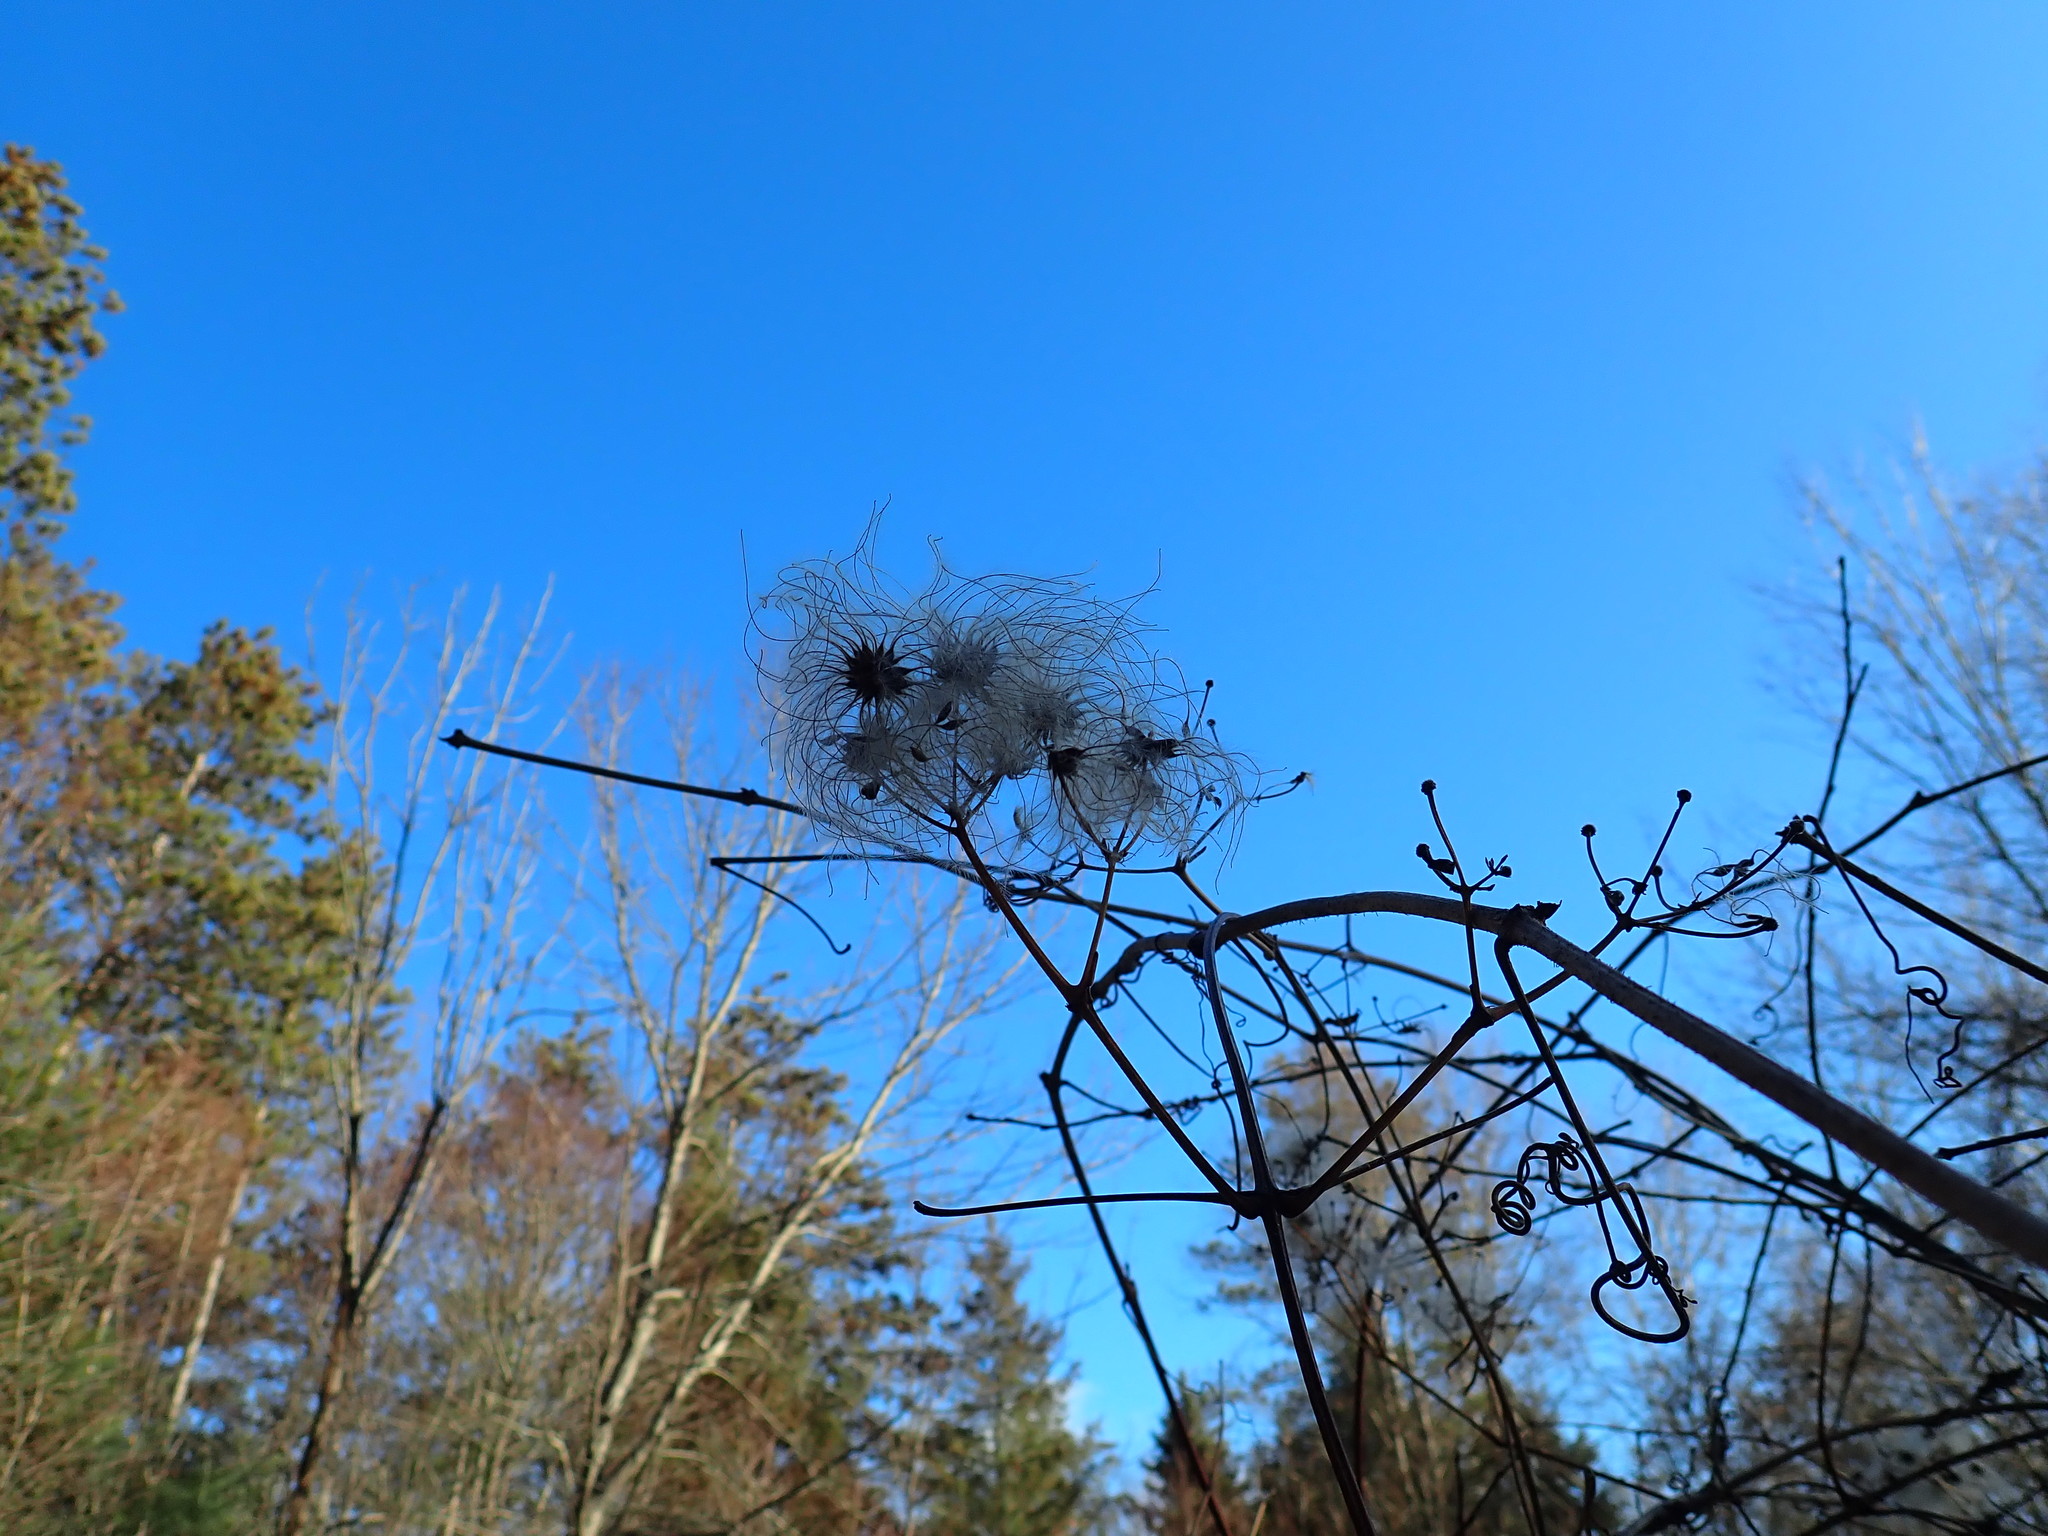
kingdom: Plantae
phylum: Tracheophyta
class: Magnoliopsida
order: Ranunculales
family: Ranunculaceae
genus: Clematis
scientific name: Clematis virginiana
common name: Virgin's-bower
